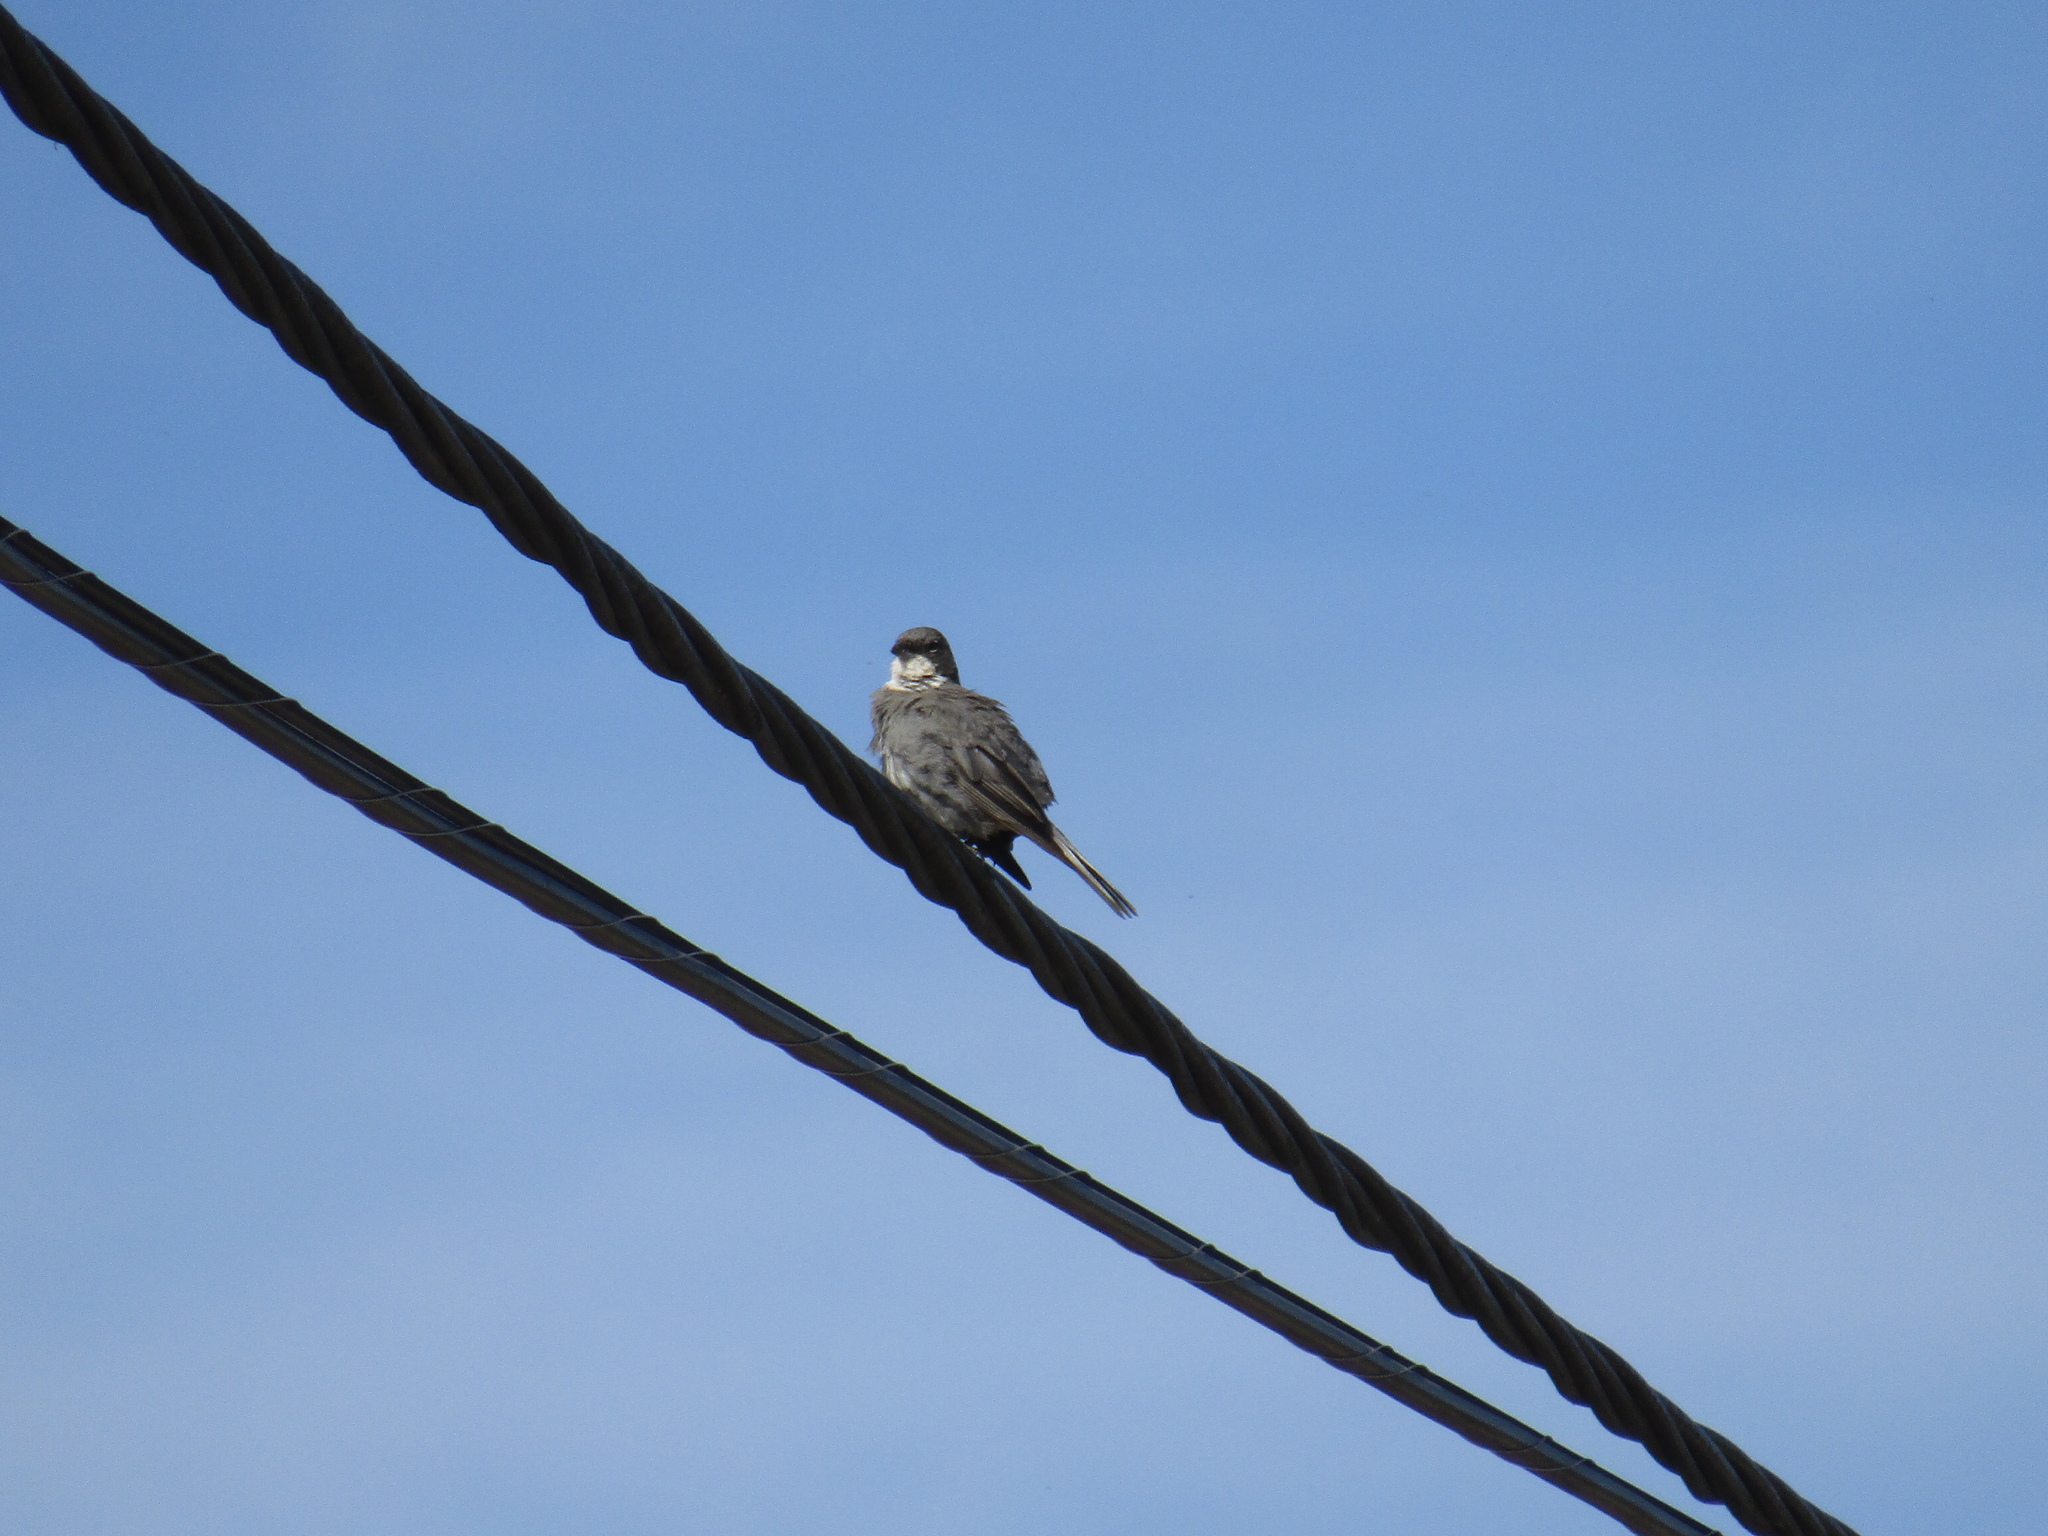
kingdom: Animalia
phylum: Chordata
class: Aves
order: Passeriformes
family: Thraupidae
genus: Diuca
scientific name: Diuca diuca
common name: Common diuca finch
